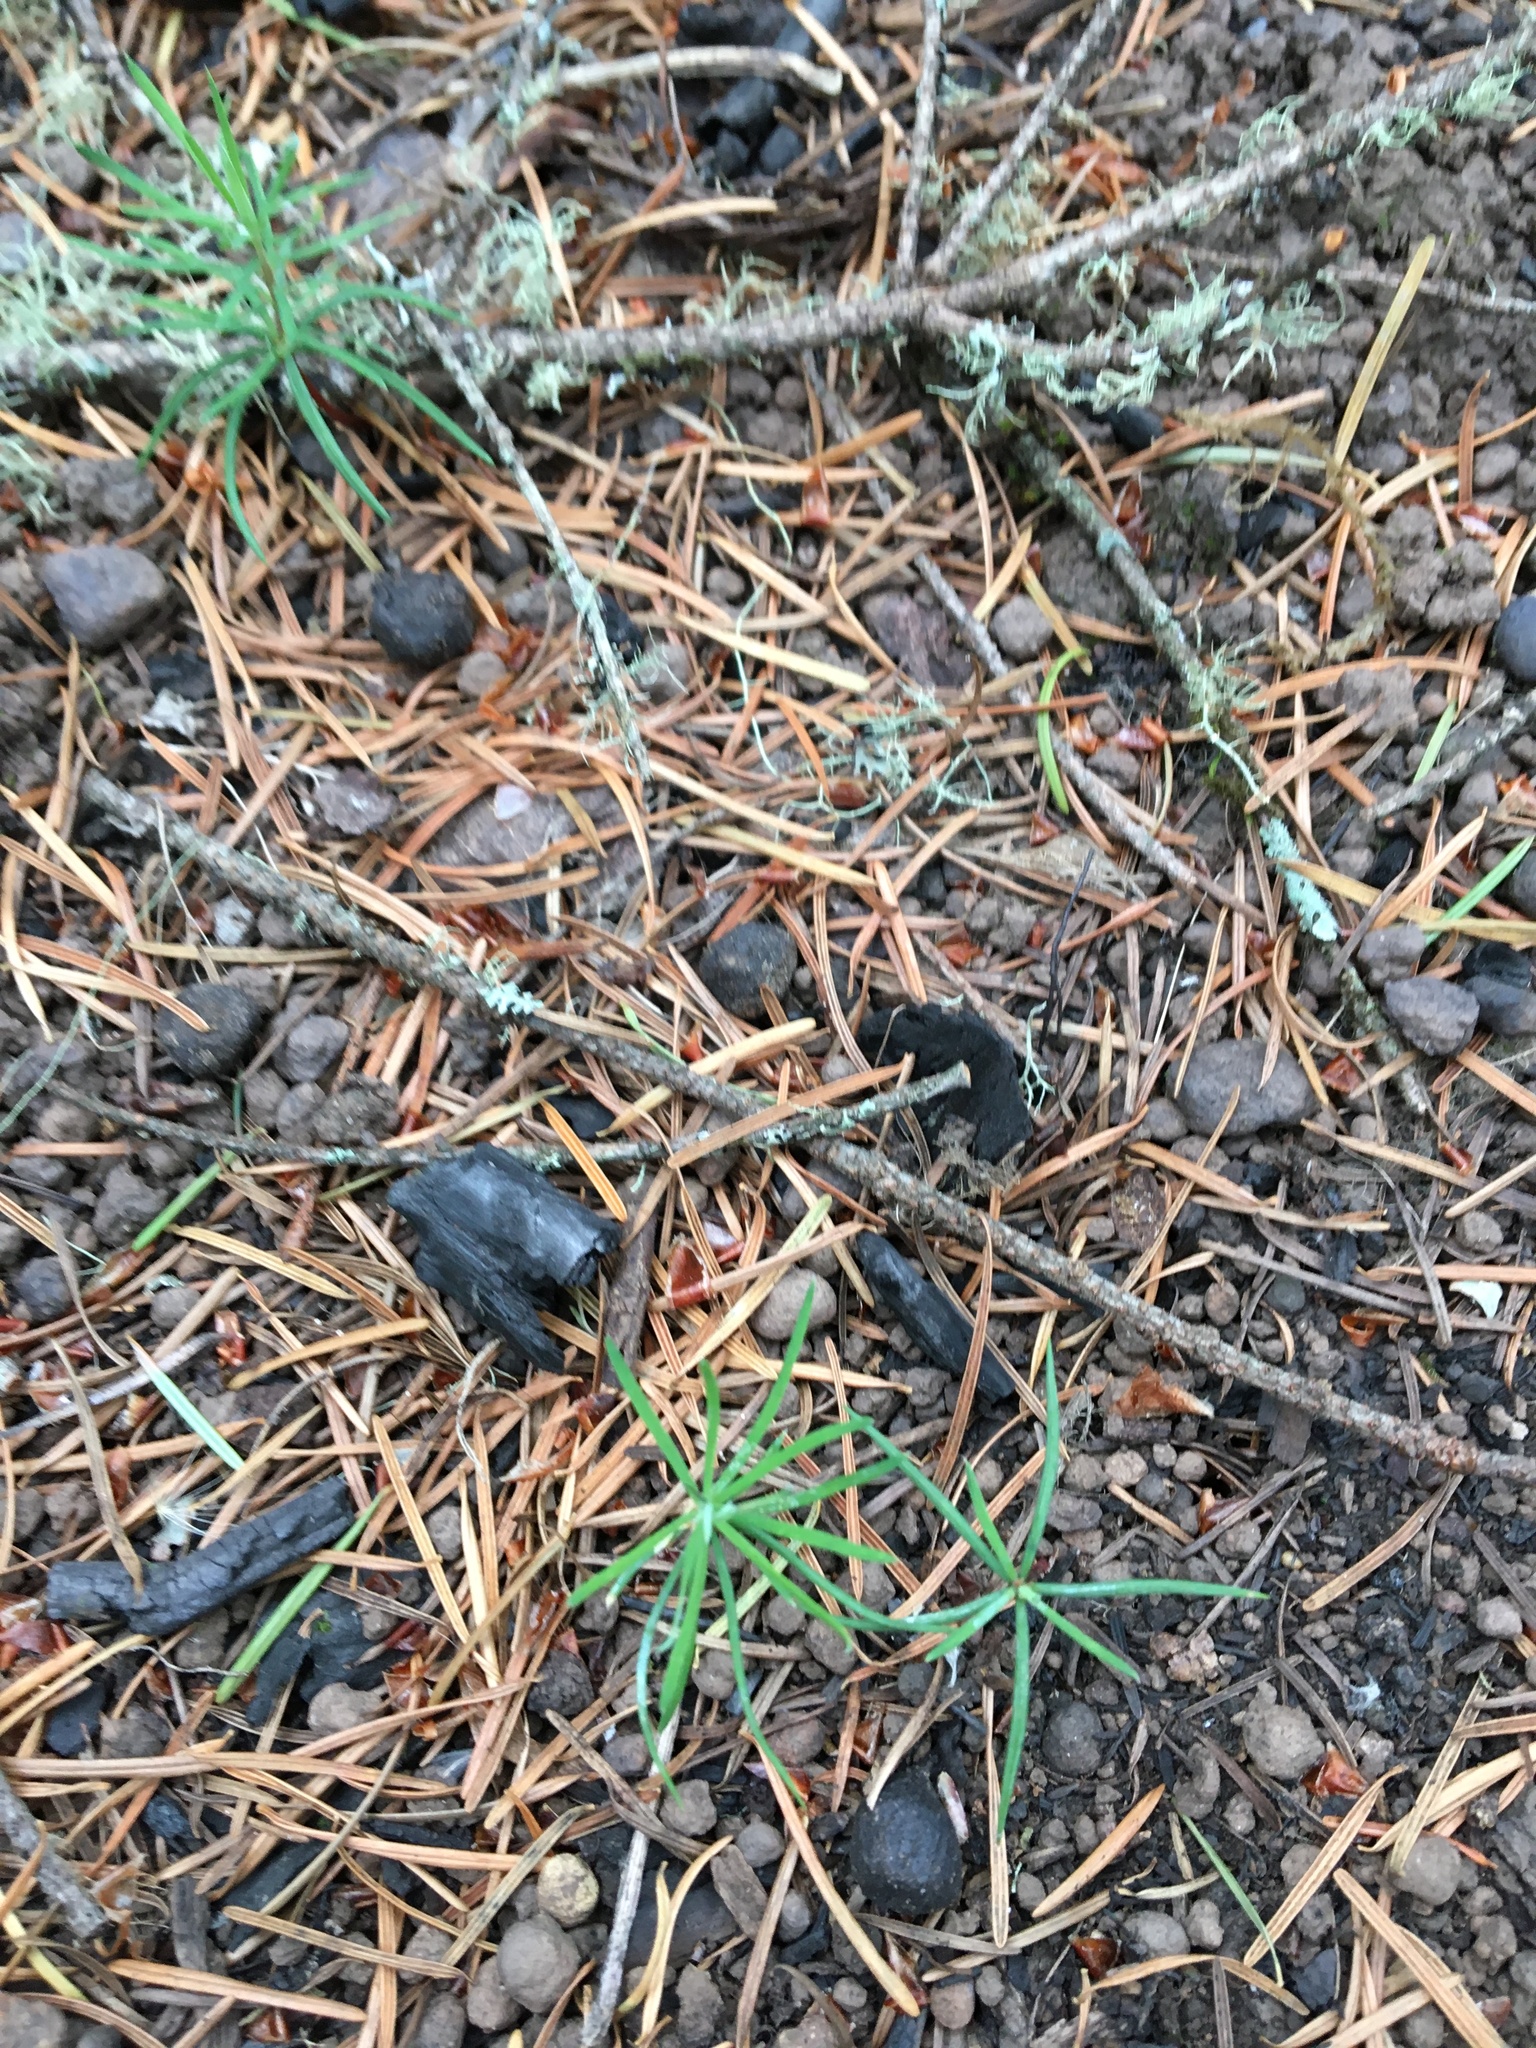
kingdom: Plantae
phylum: Tracheophyta
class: Pinopsida
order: Pinales
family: Pinaceae
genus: Pseudotsuga
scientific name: Pseudotsuga menziesii
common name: Douglas fir
